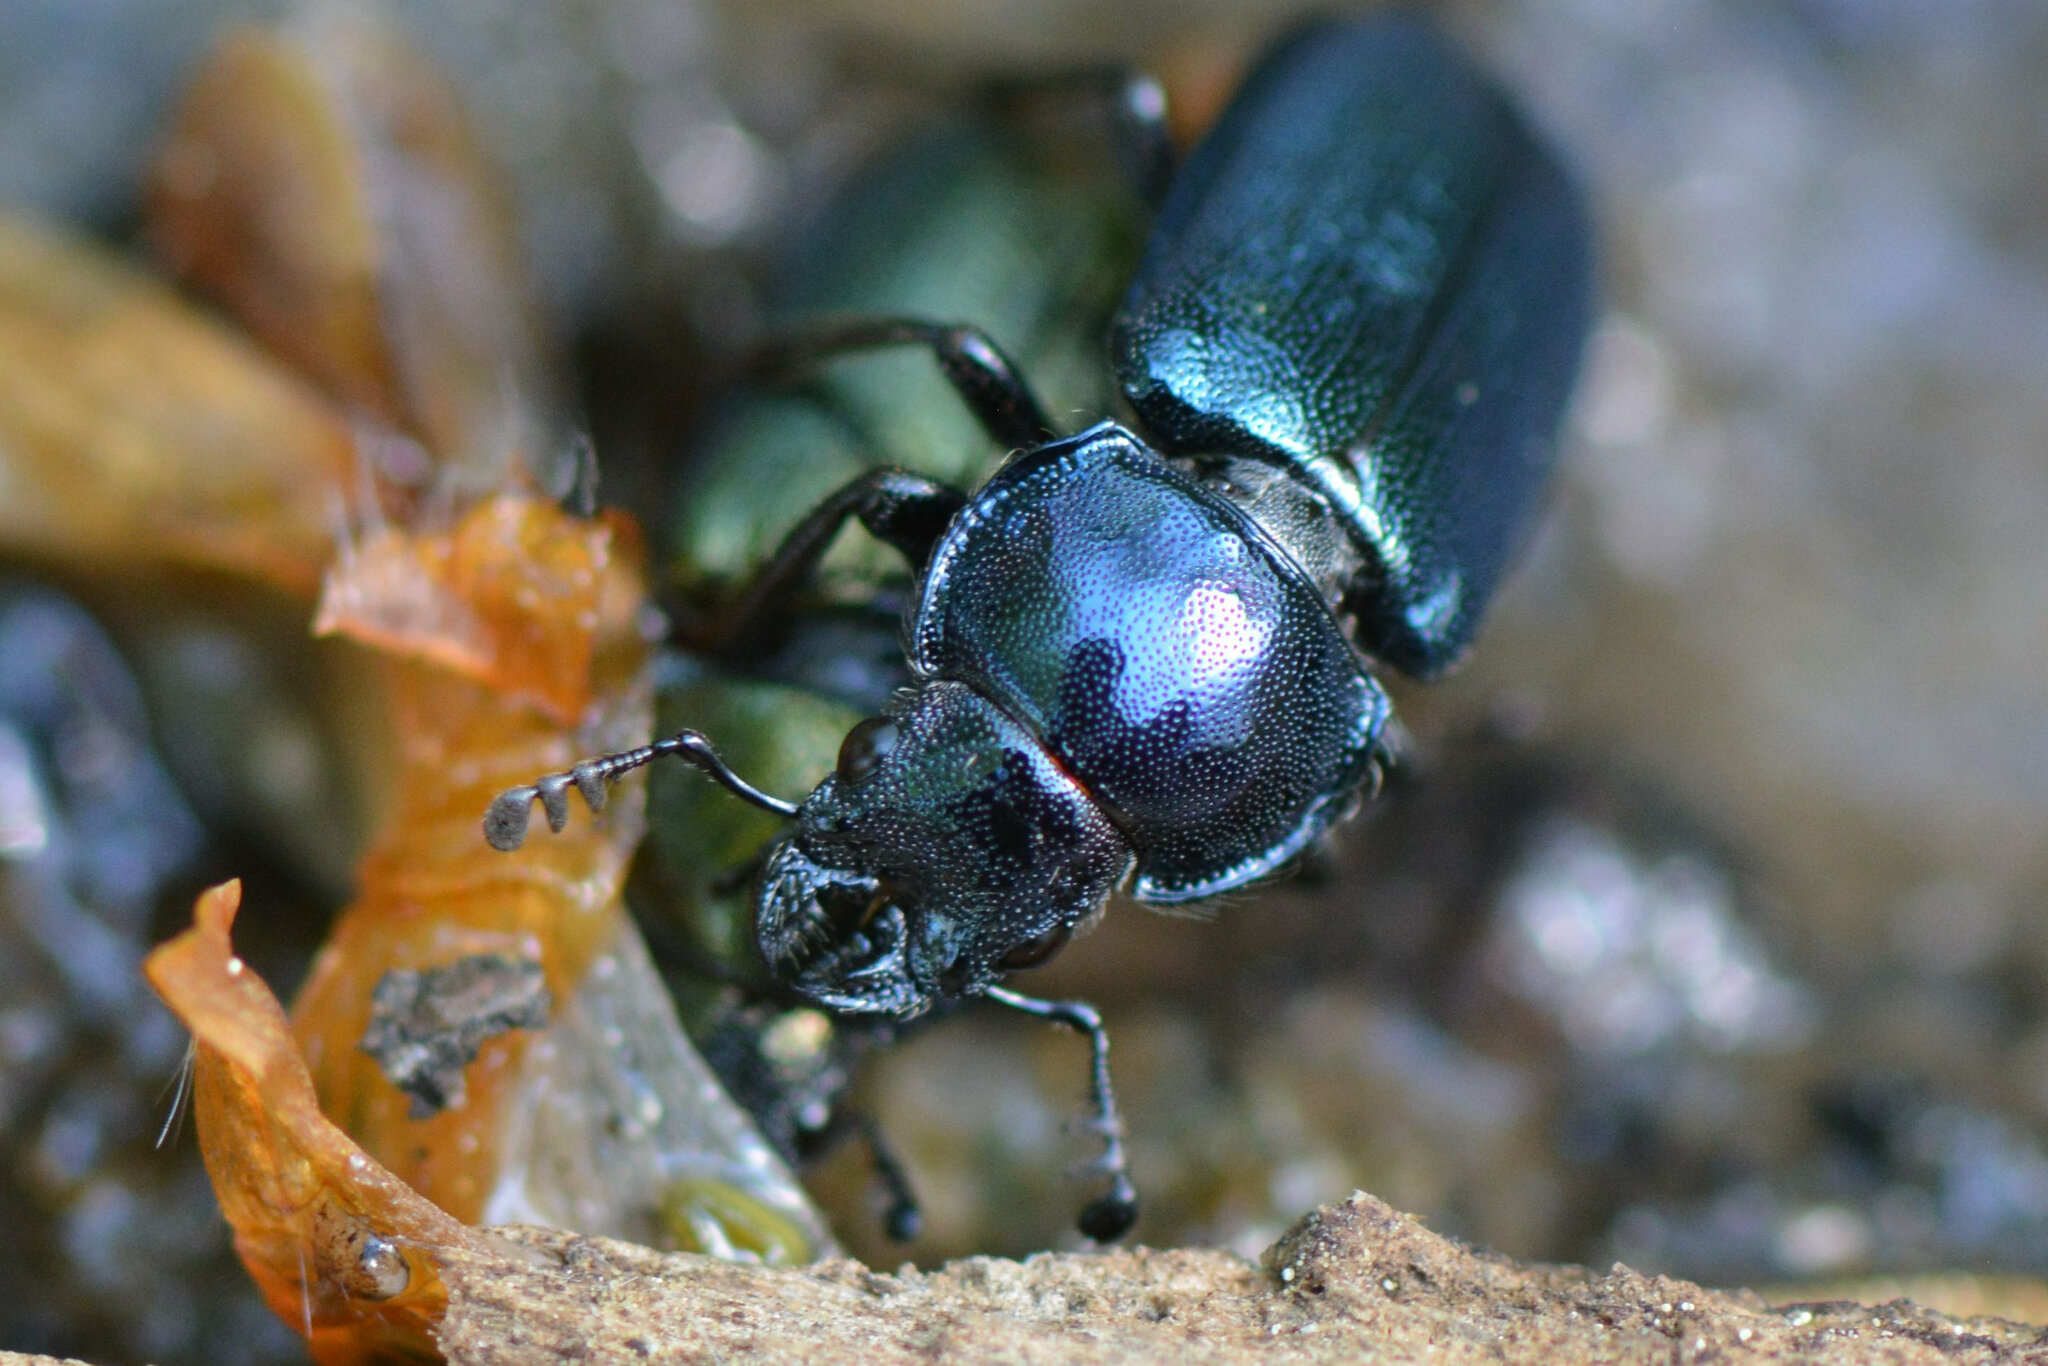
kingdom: Animalia
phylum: Arthropoda
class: Insecta
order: Coleoptera
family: Lucanidae
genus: Platycerus
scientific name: Platycerus caraboides
